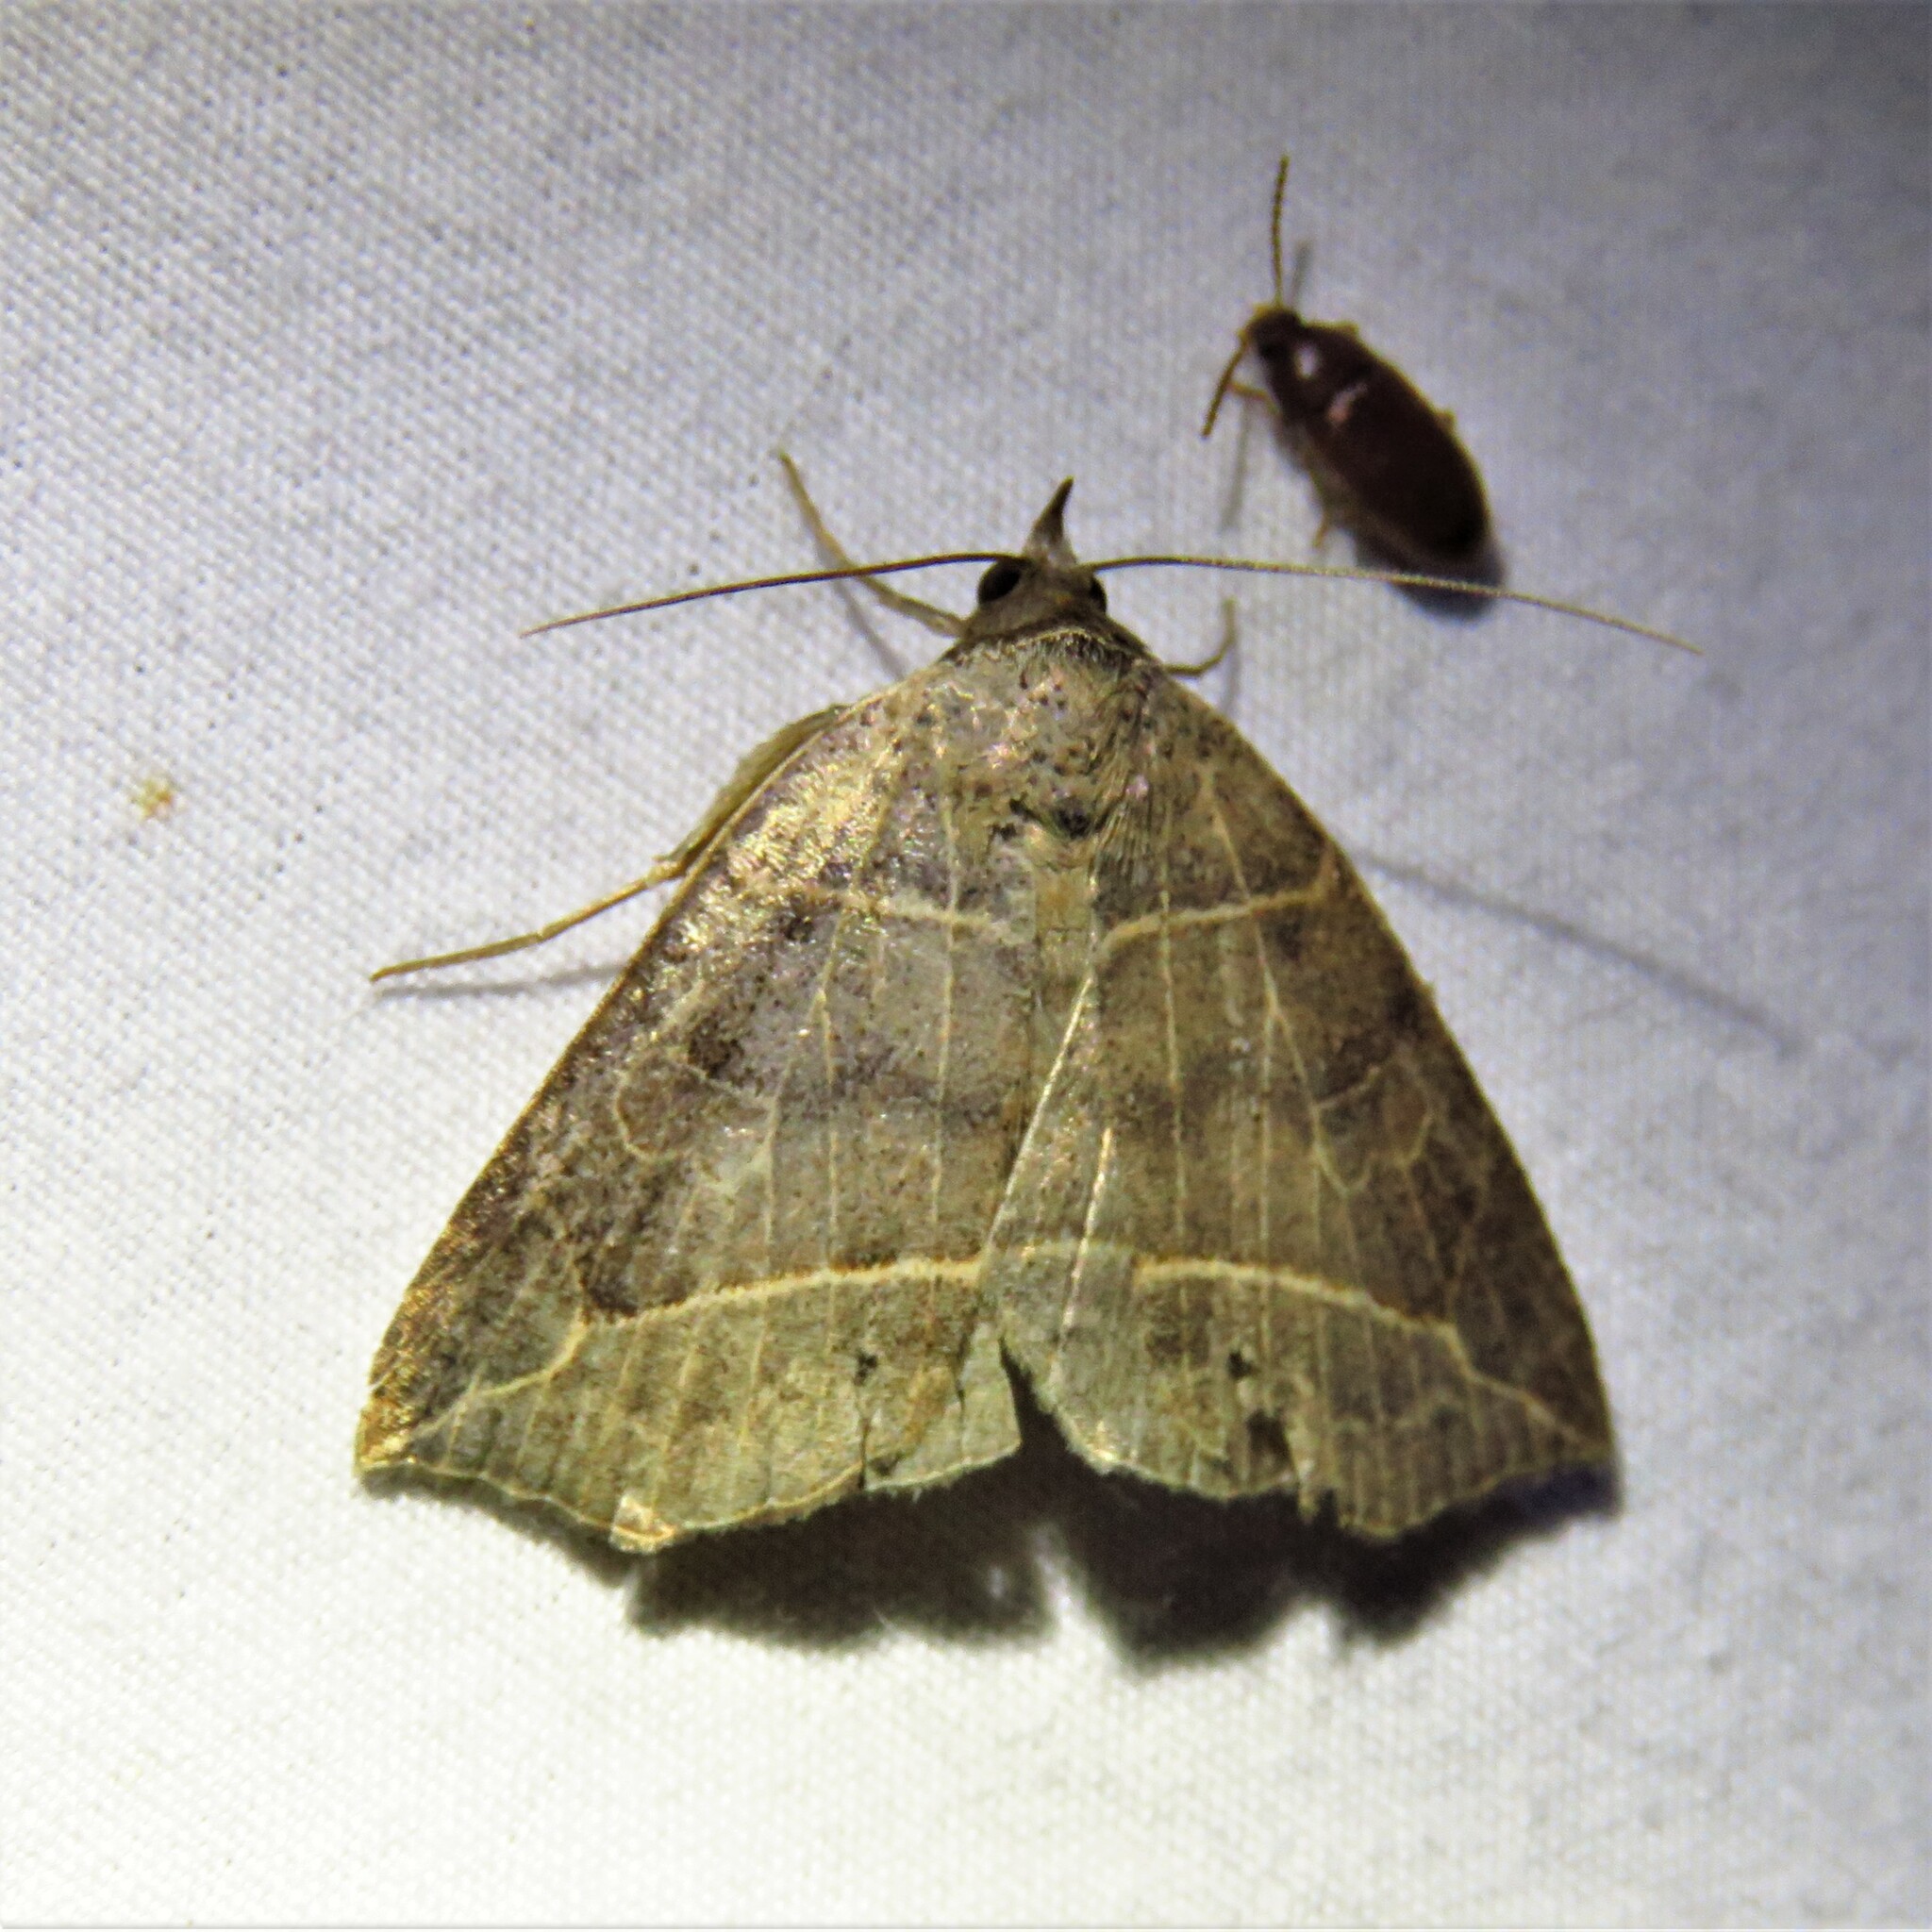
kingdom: Animalia
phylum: Arthropoda
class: Insecta
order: Lepidoptera
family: Erebidae
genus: Isogona
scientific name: Isogona tenuis
